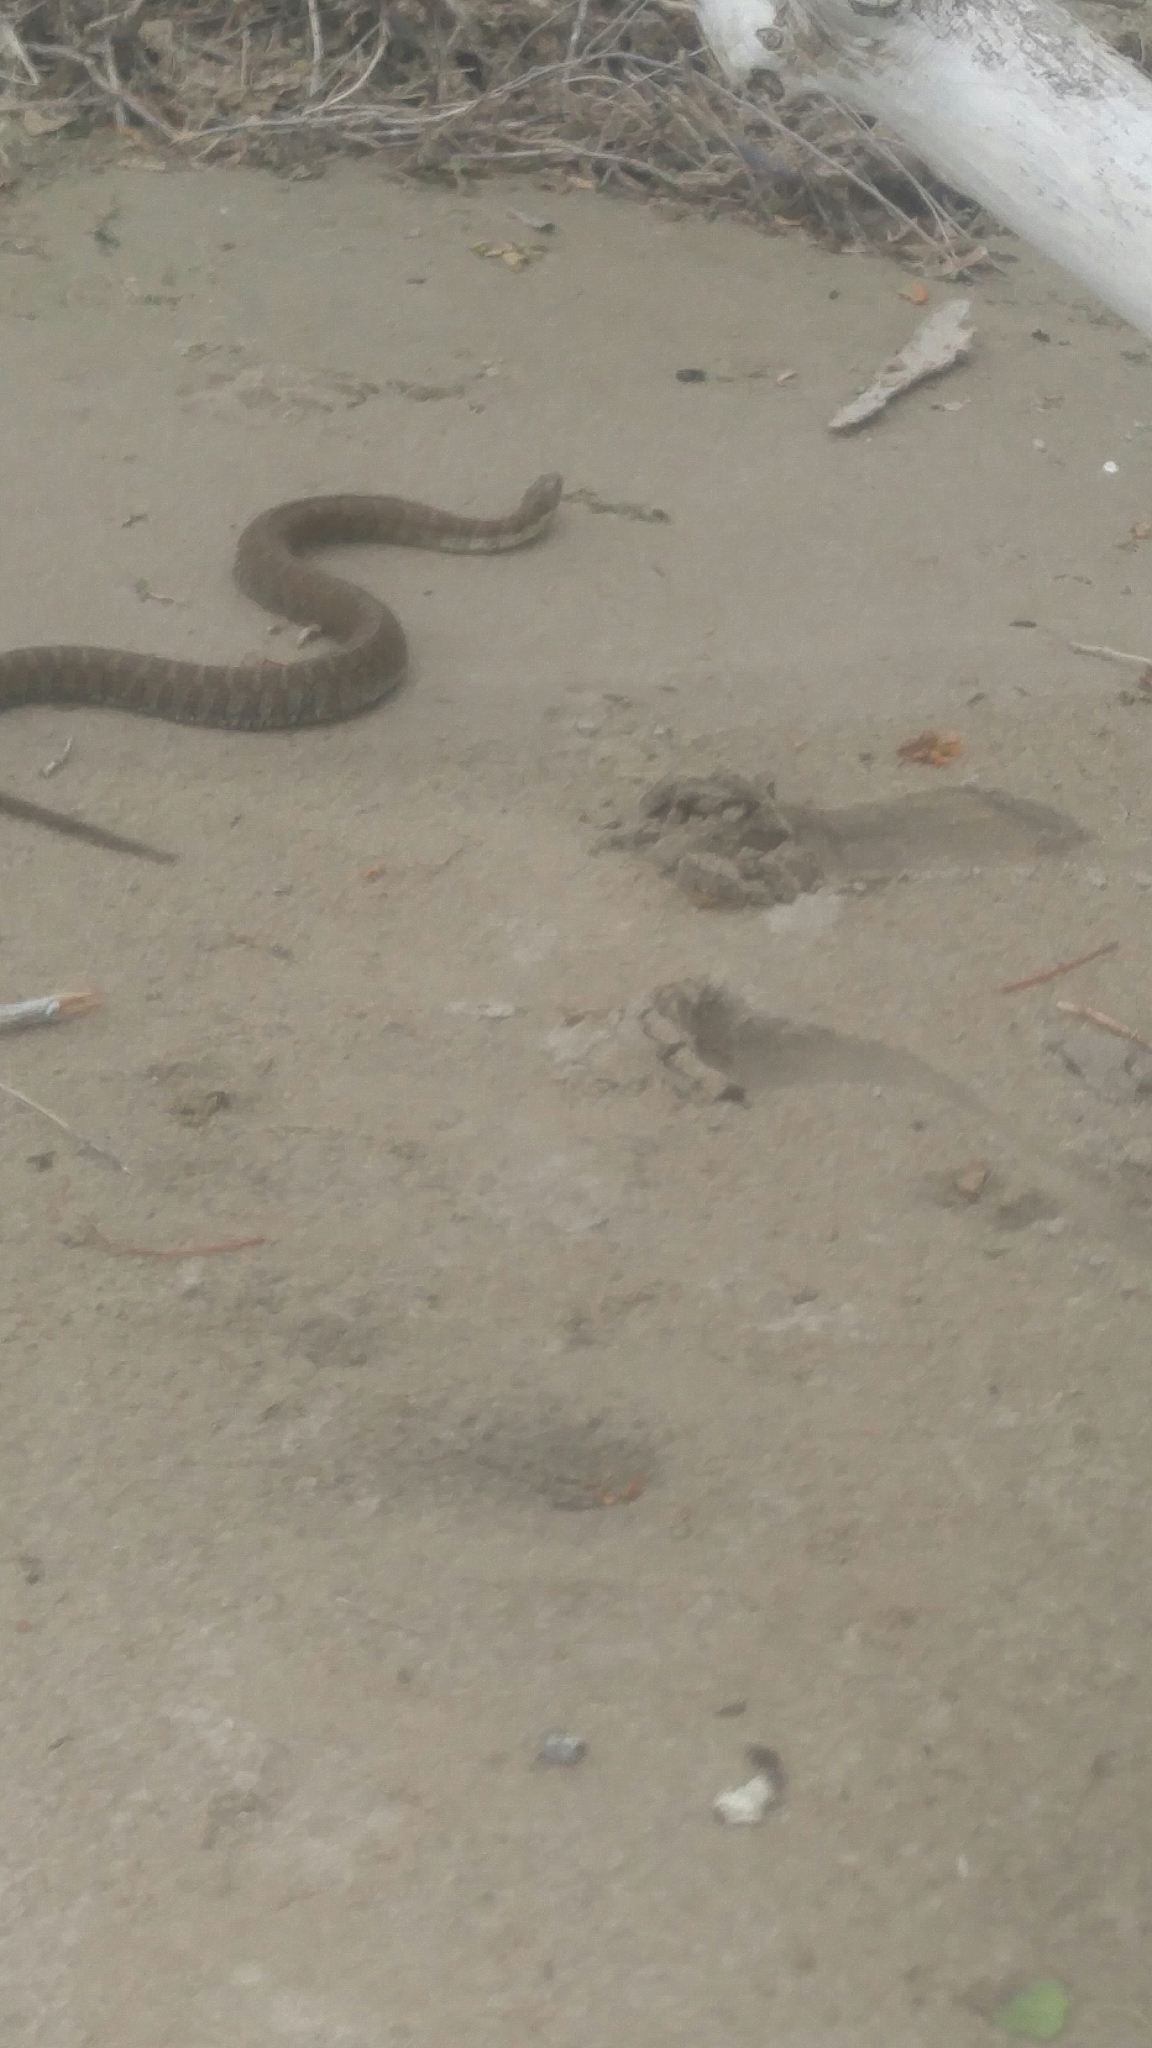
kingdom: Animalia
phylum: Chordata
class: Squamata
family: Colubridae
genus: Nerodia
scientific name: Nerodia sipedon
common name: Northern water snake
